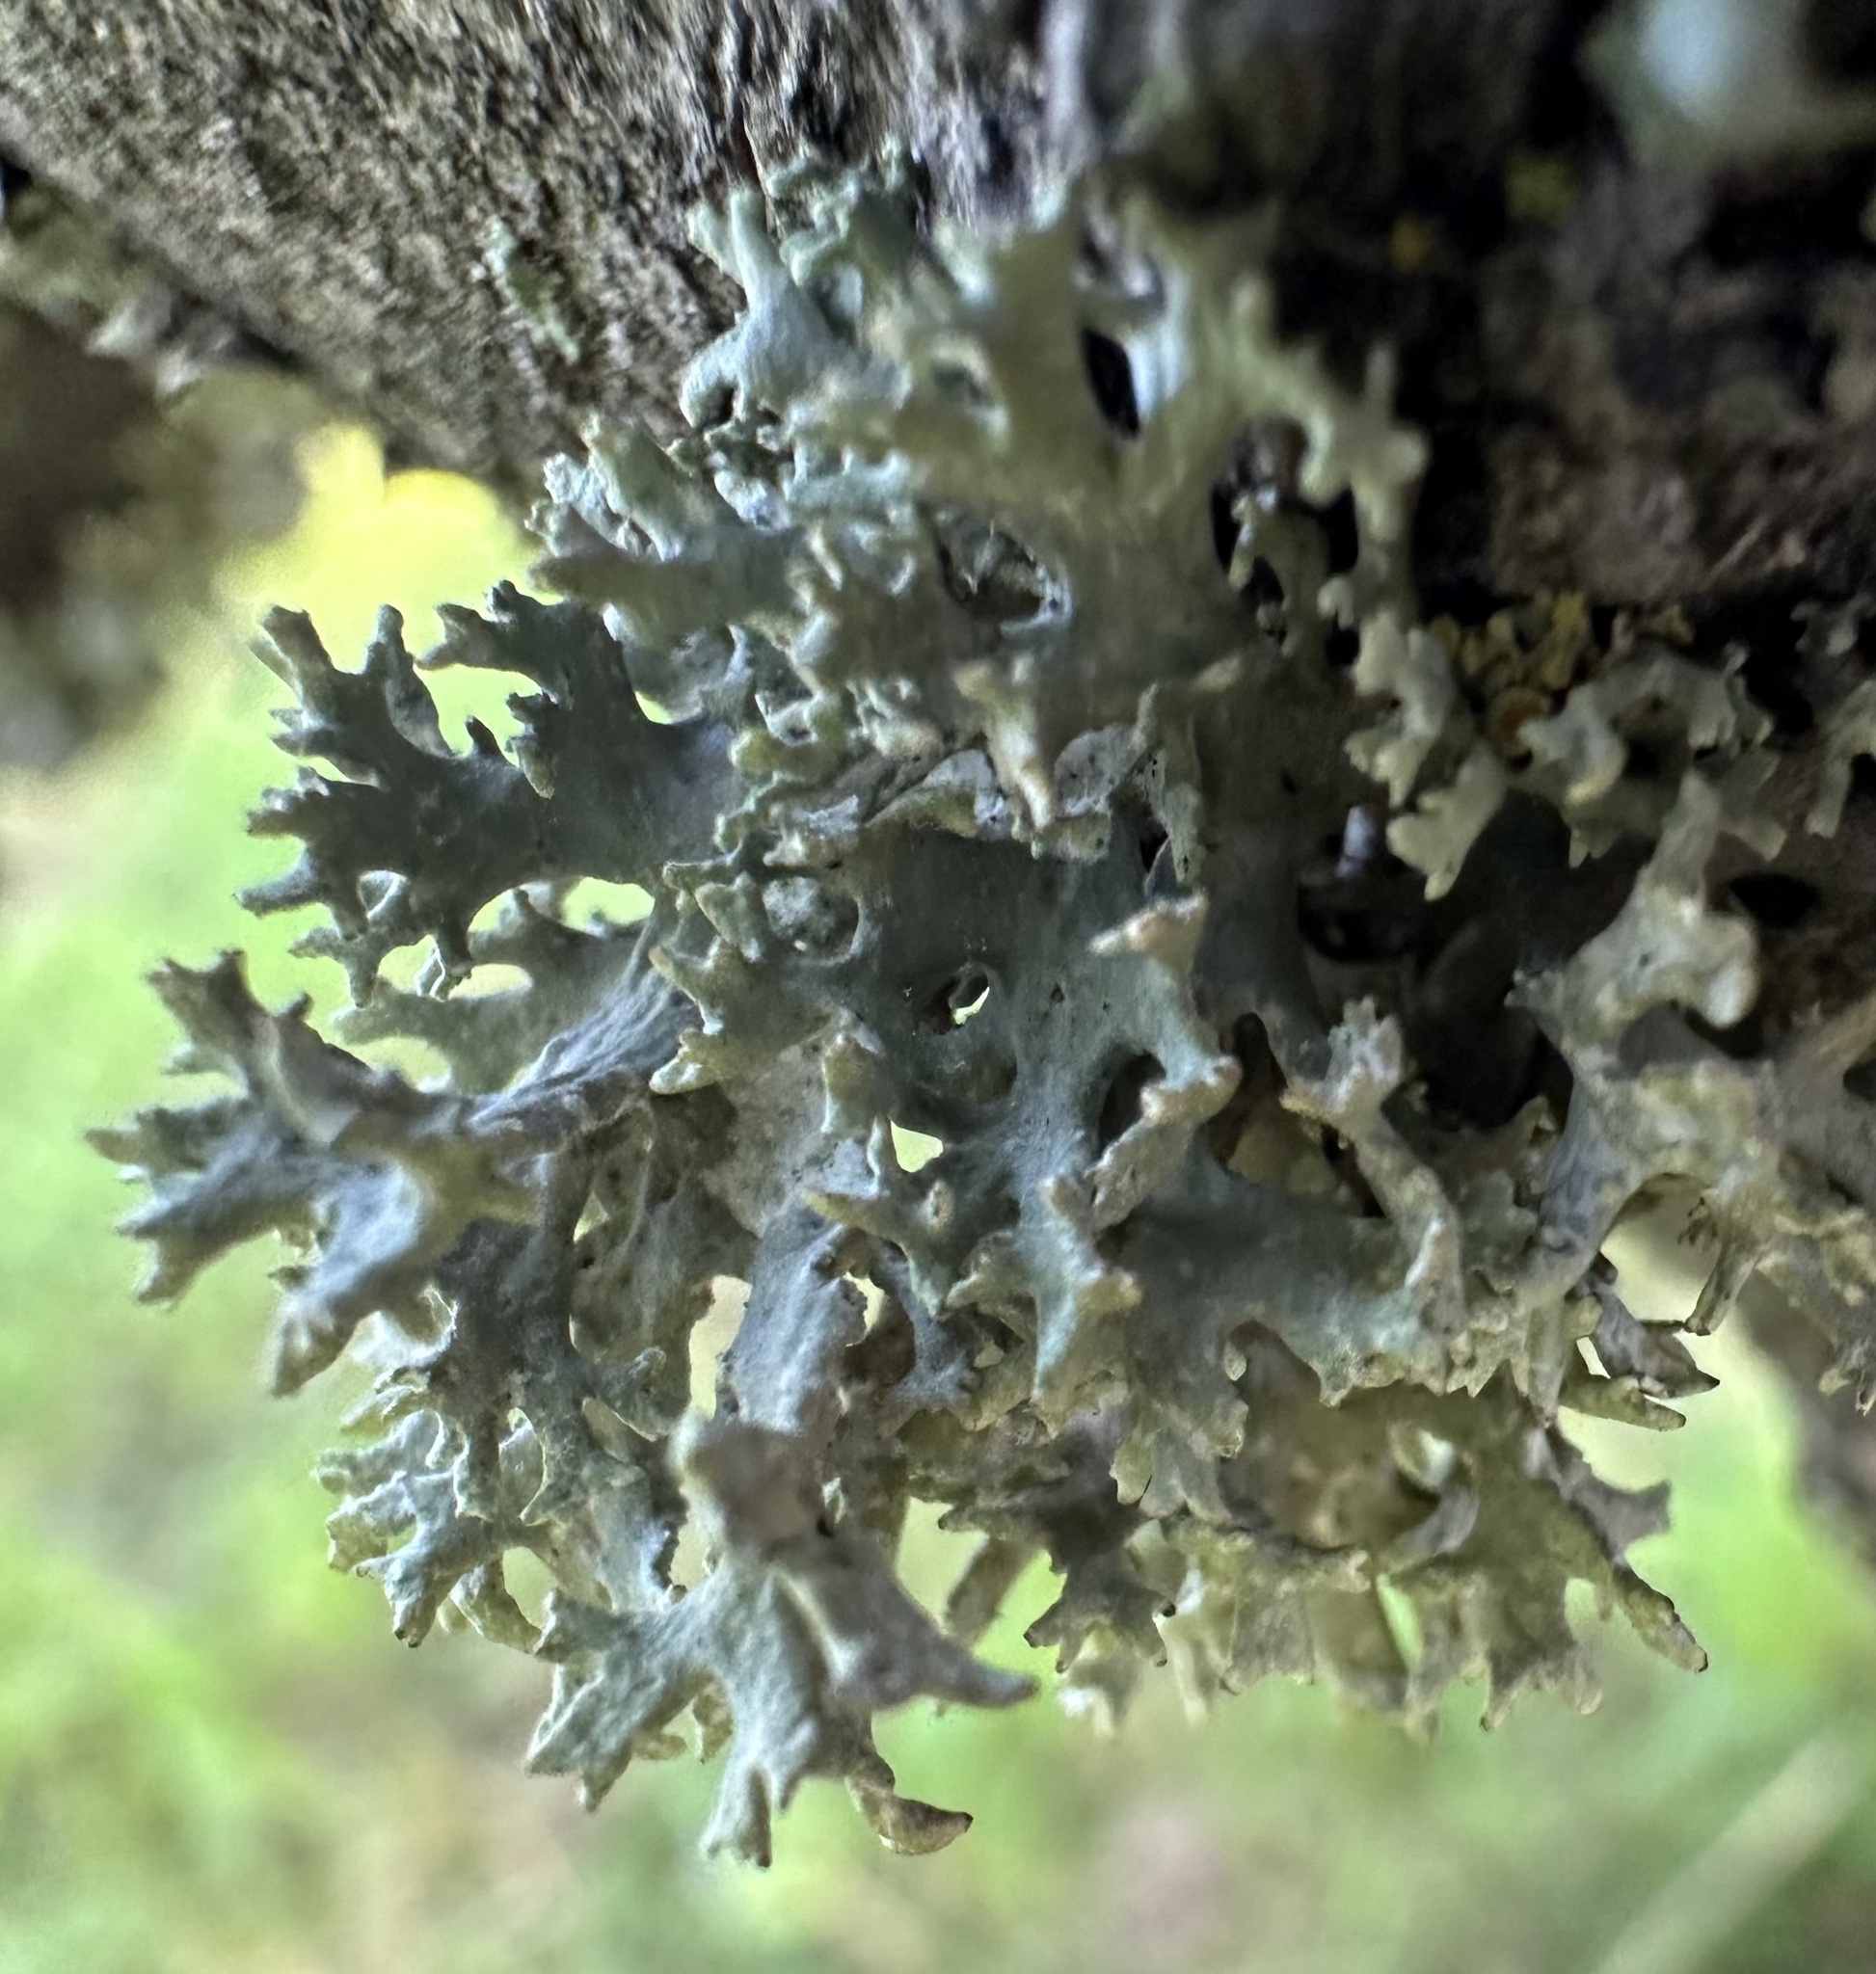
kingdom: Fungi
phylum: Ascomycota
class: Lecanoromycetes
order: Lecanorales
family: Parmeliaceae
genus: Evernia
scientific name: Evernia prunastri
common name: Oak moss
